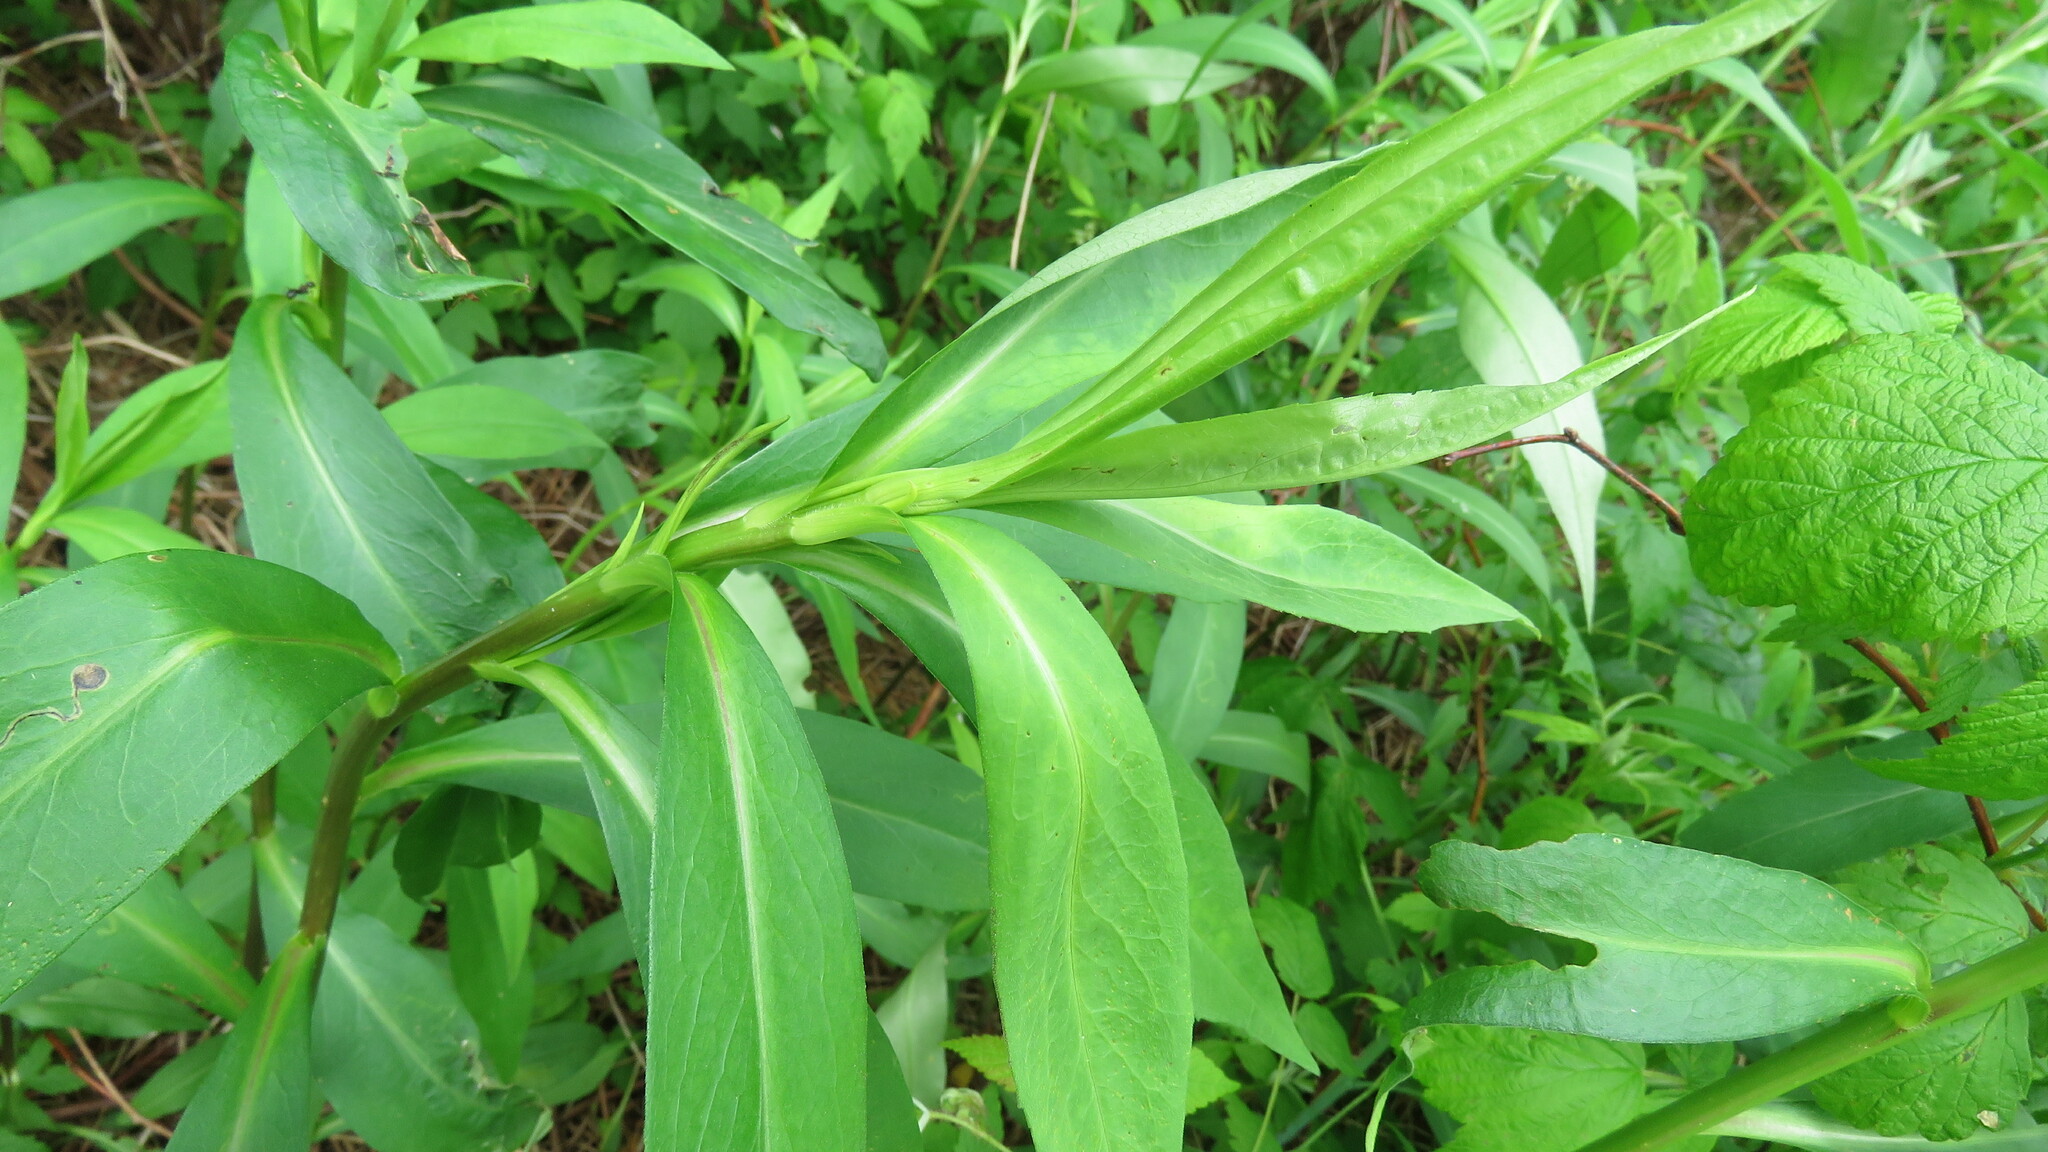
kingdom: Plantae
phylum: Tracheophyta
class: Magnoliopsida
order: Asterales
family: Asteraceae
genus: Symphyotrichum
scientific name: Symphyotrichum novi-belgii
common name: Michaelmas daisy
